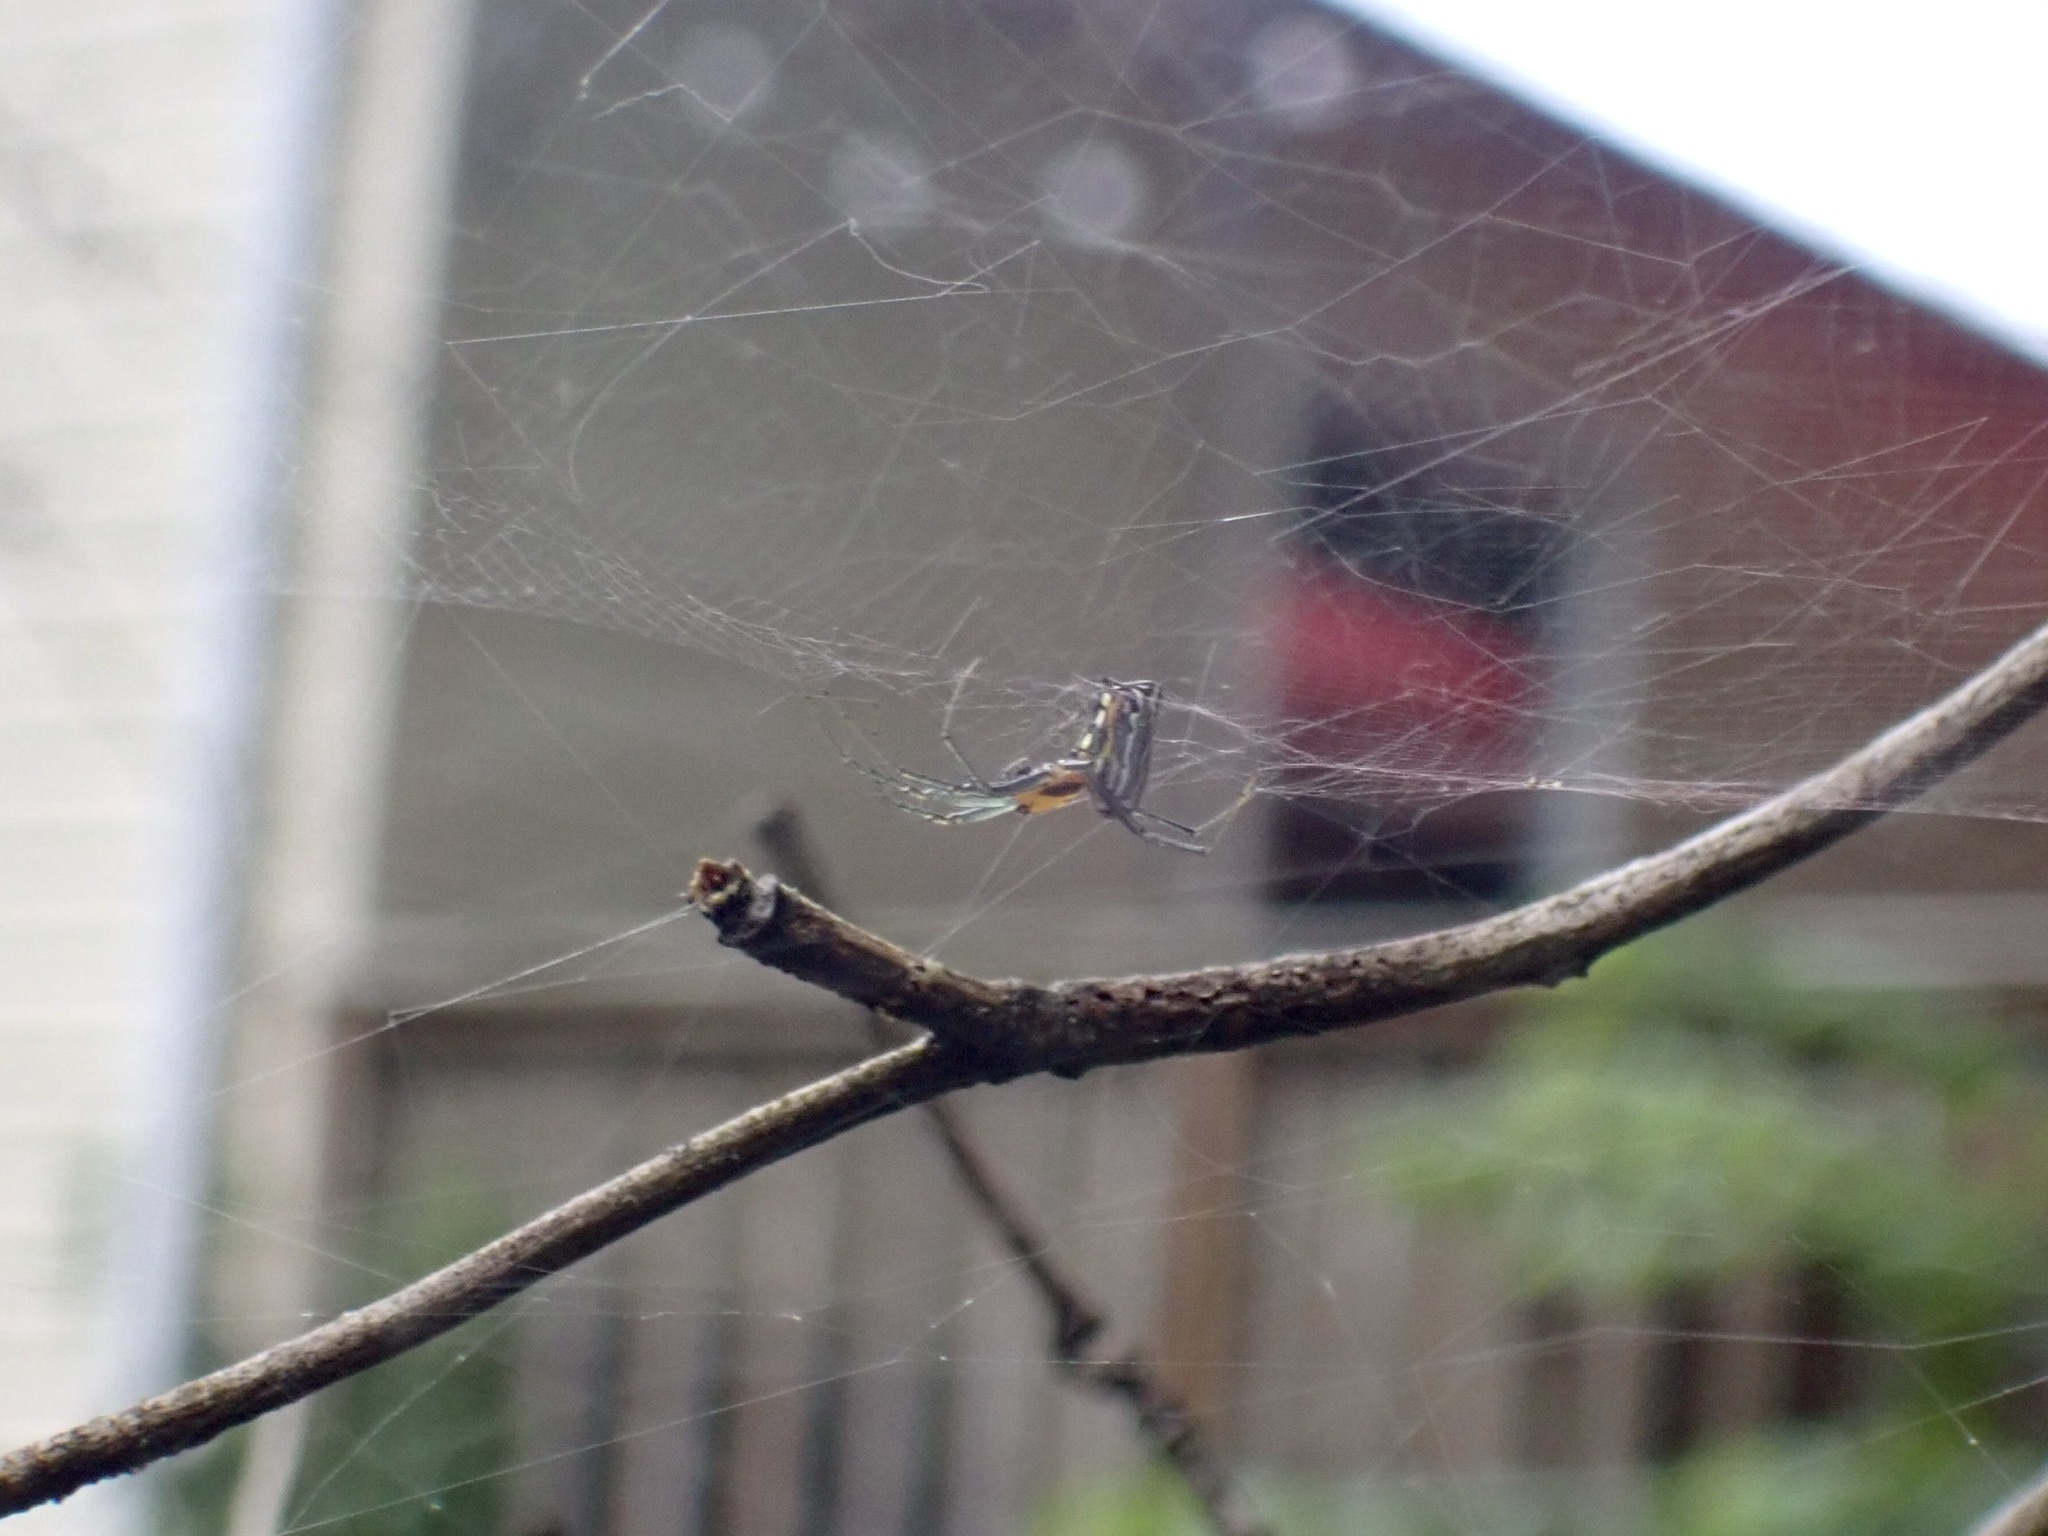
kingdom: Animalia
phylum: Arthropoda
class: Arachnida
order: Araneae
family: Araneidae
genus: Mecynogea
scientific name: Mecynogea lemniscata
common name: Orb weavers
